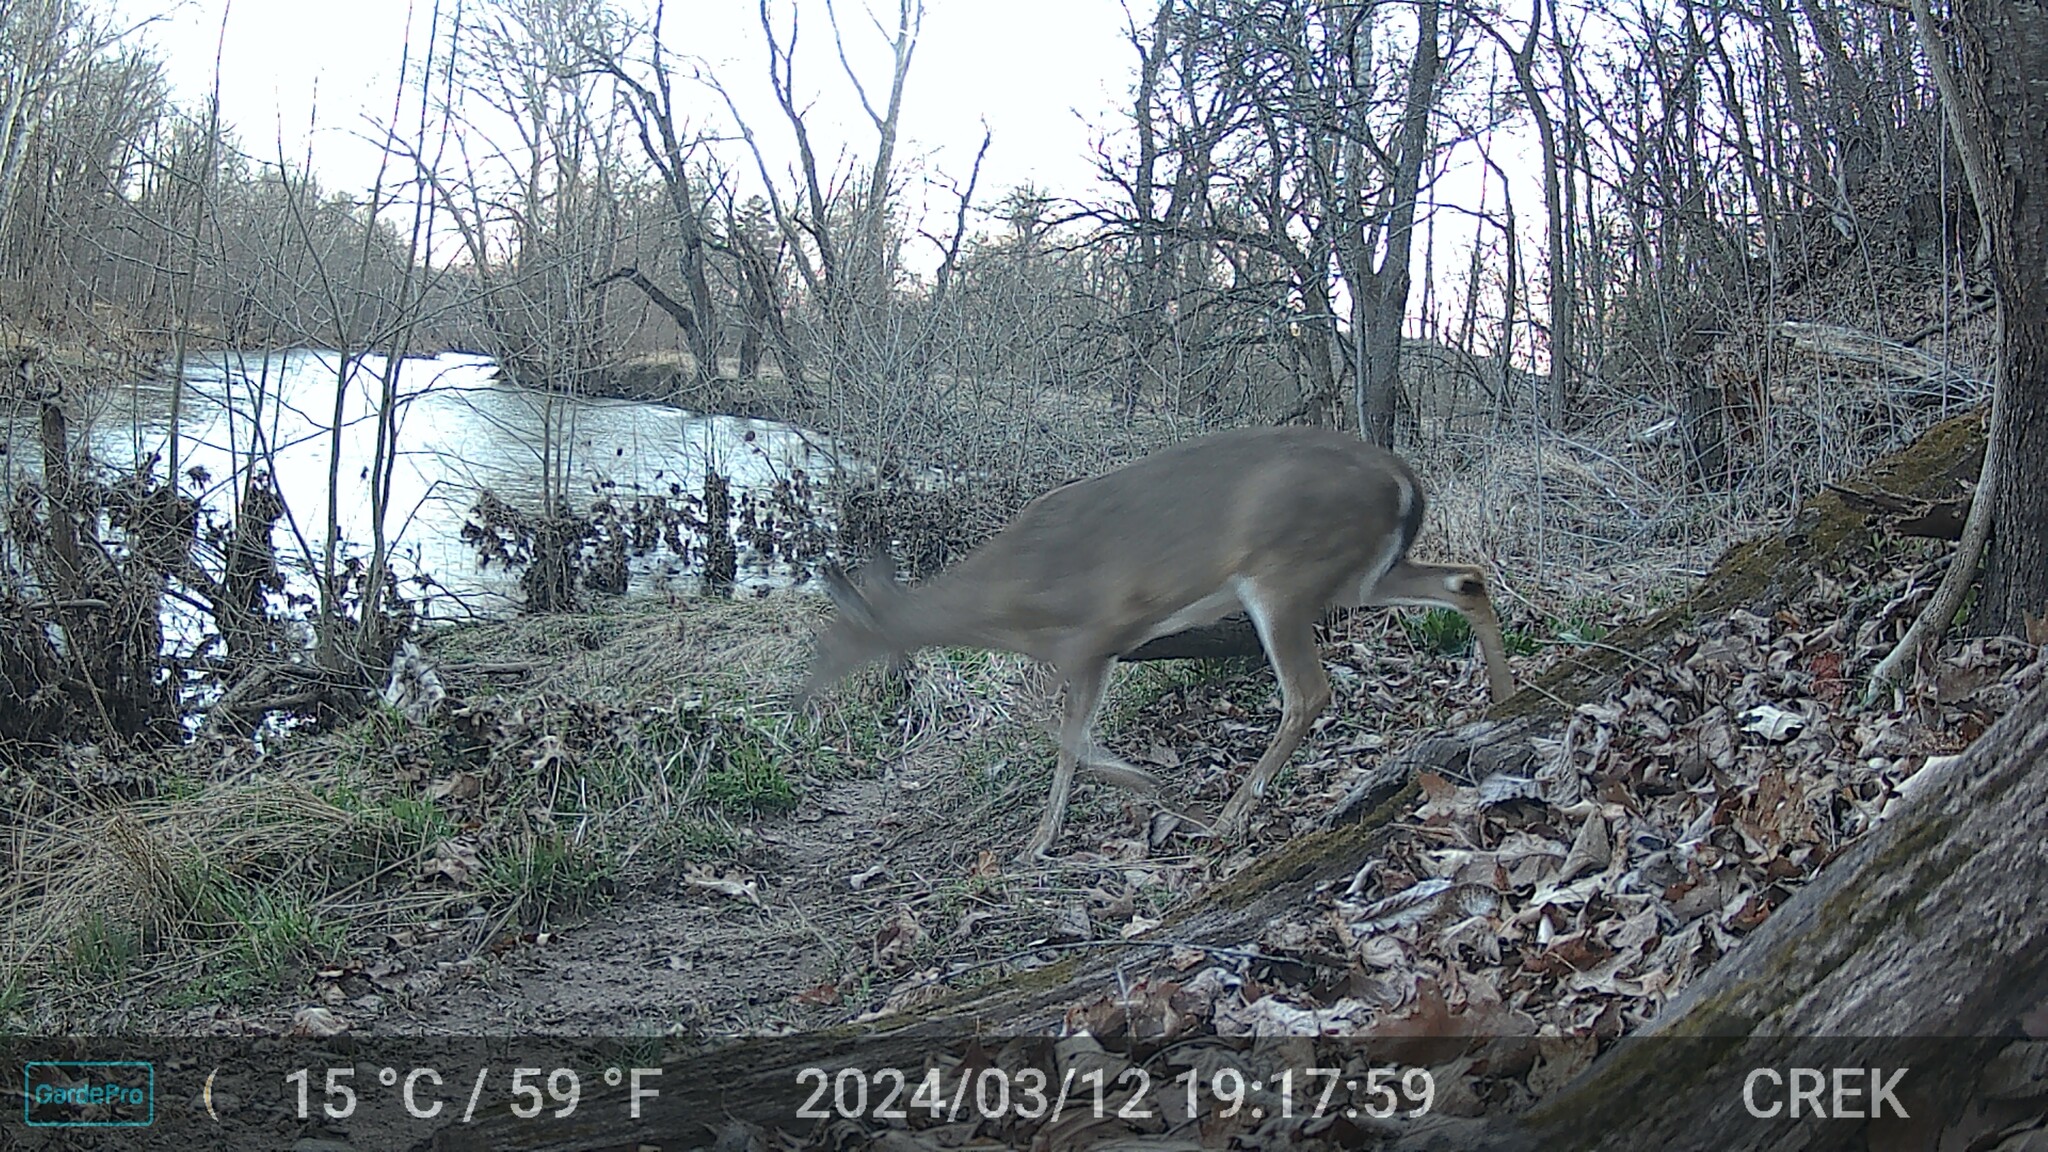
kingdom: Animalia
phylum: Chordata
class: Mammalia
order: Artiodactyla
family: Cervidae
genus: Odocoileus
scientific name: Odocoileus virginianus
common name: White-tailed deer
